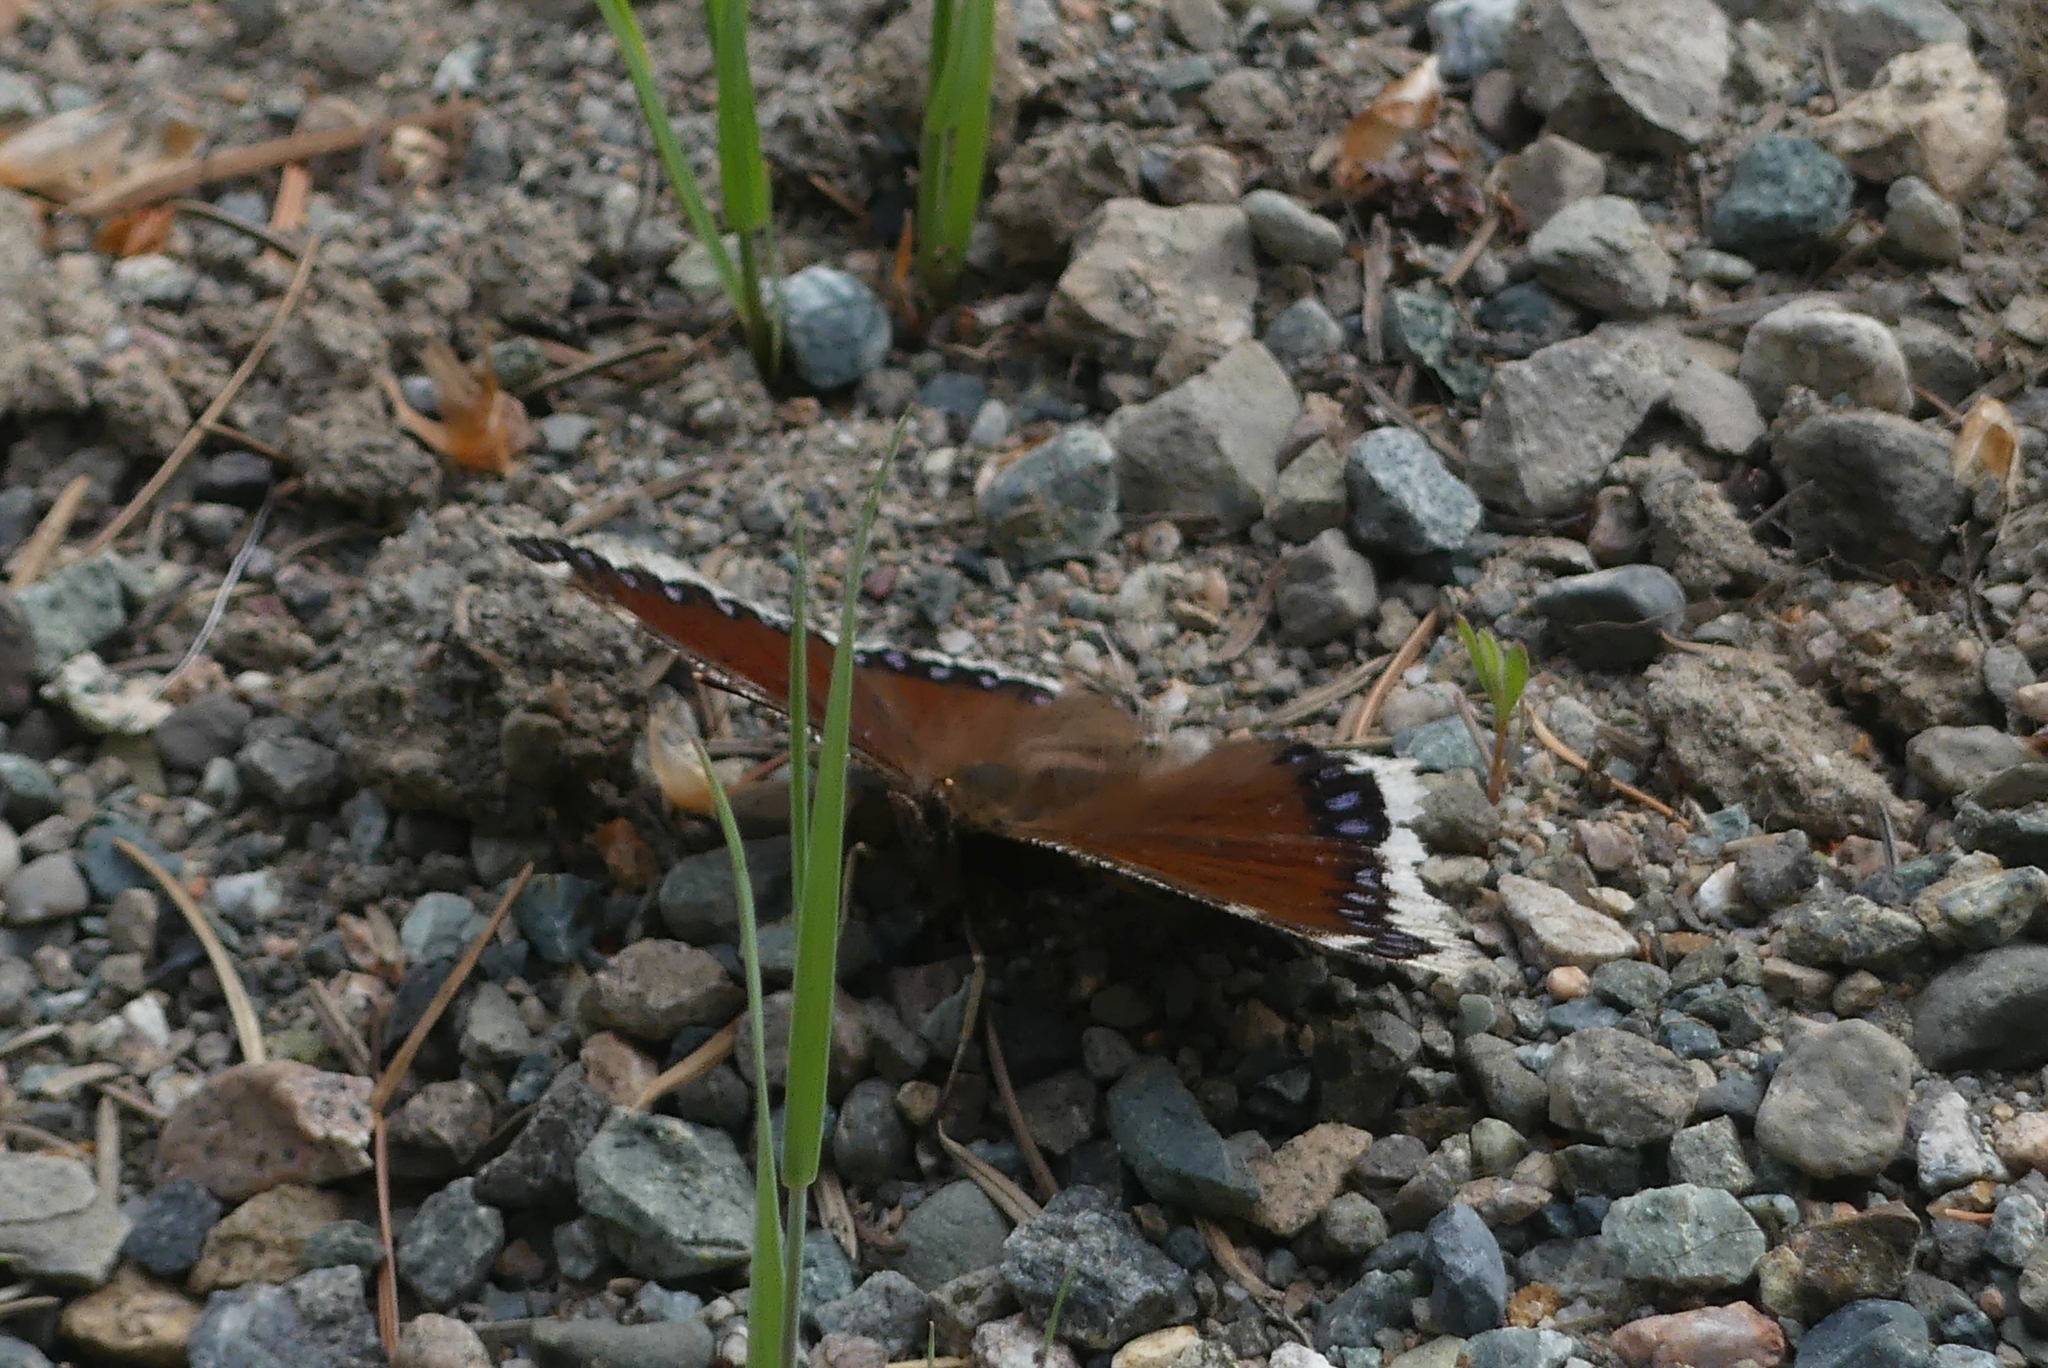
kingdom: Animalia
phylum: Arthropoda
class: Insecta
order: Lepidoptera
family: Nymphalidae
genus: Nymphalis
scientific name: Nymphalis antiopa
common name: Camberwell beauty
